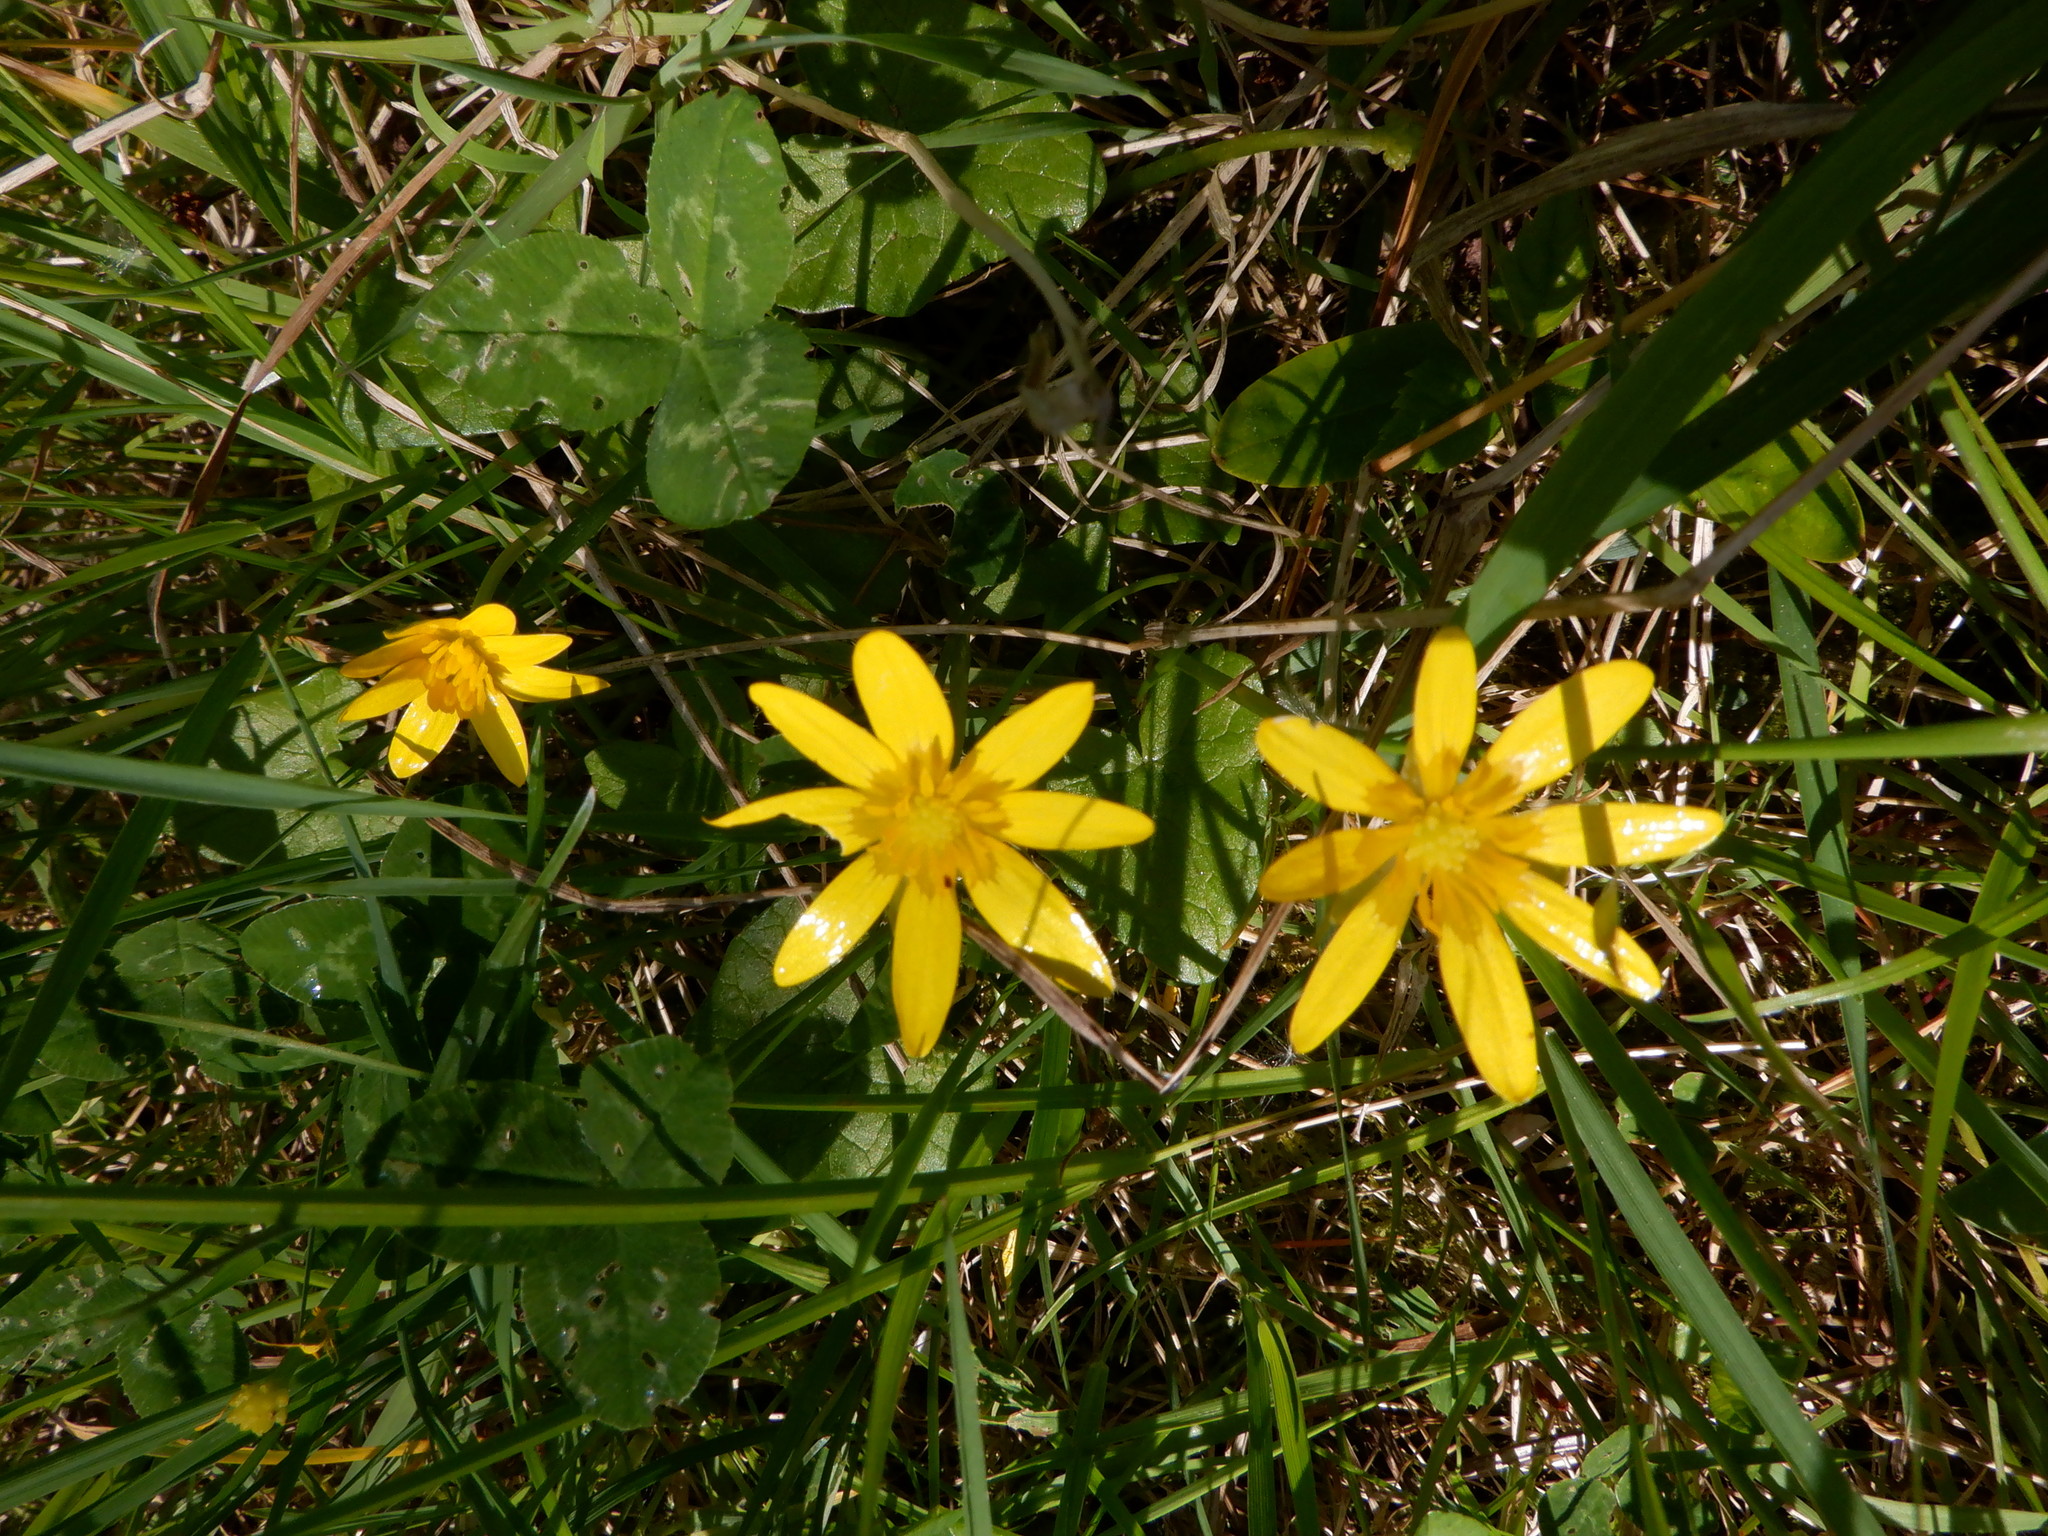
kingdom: Plantae
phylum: Tracheophyta
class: Magnoliopsida
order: Ranunculales
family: Ranunculaceae
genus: Ficaria
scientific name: Ficaria verna
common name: Lesser celandine
